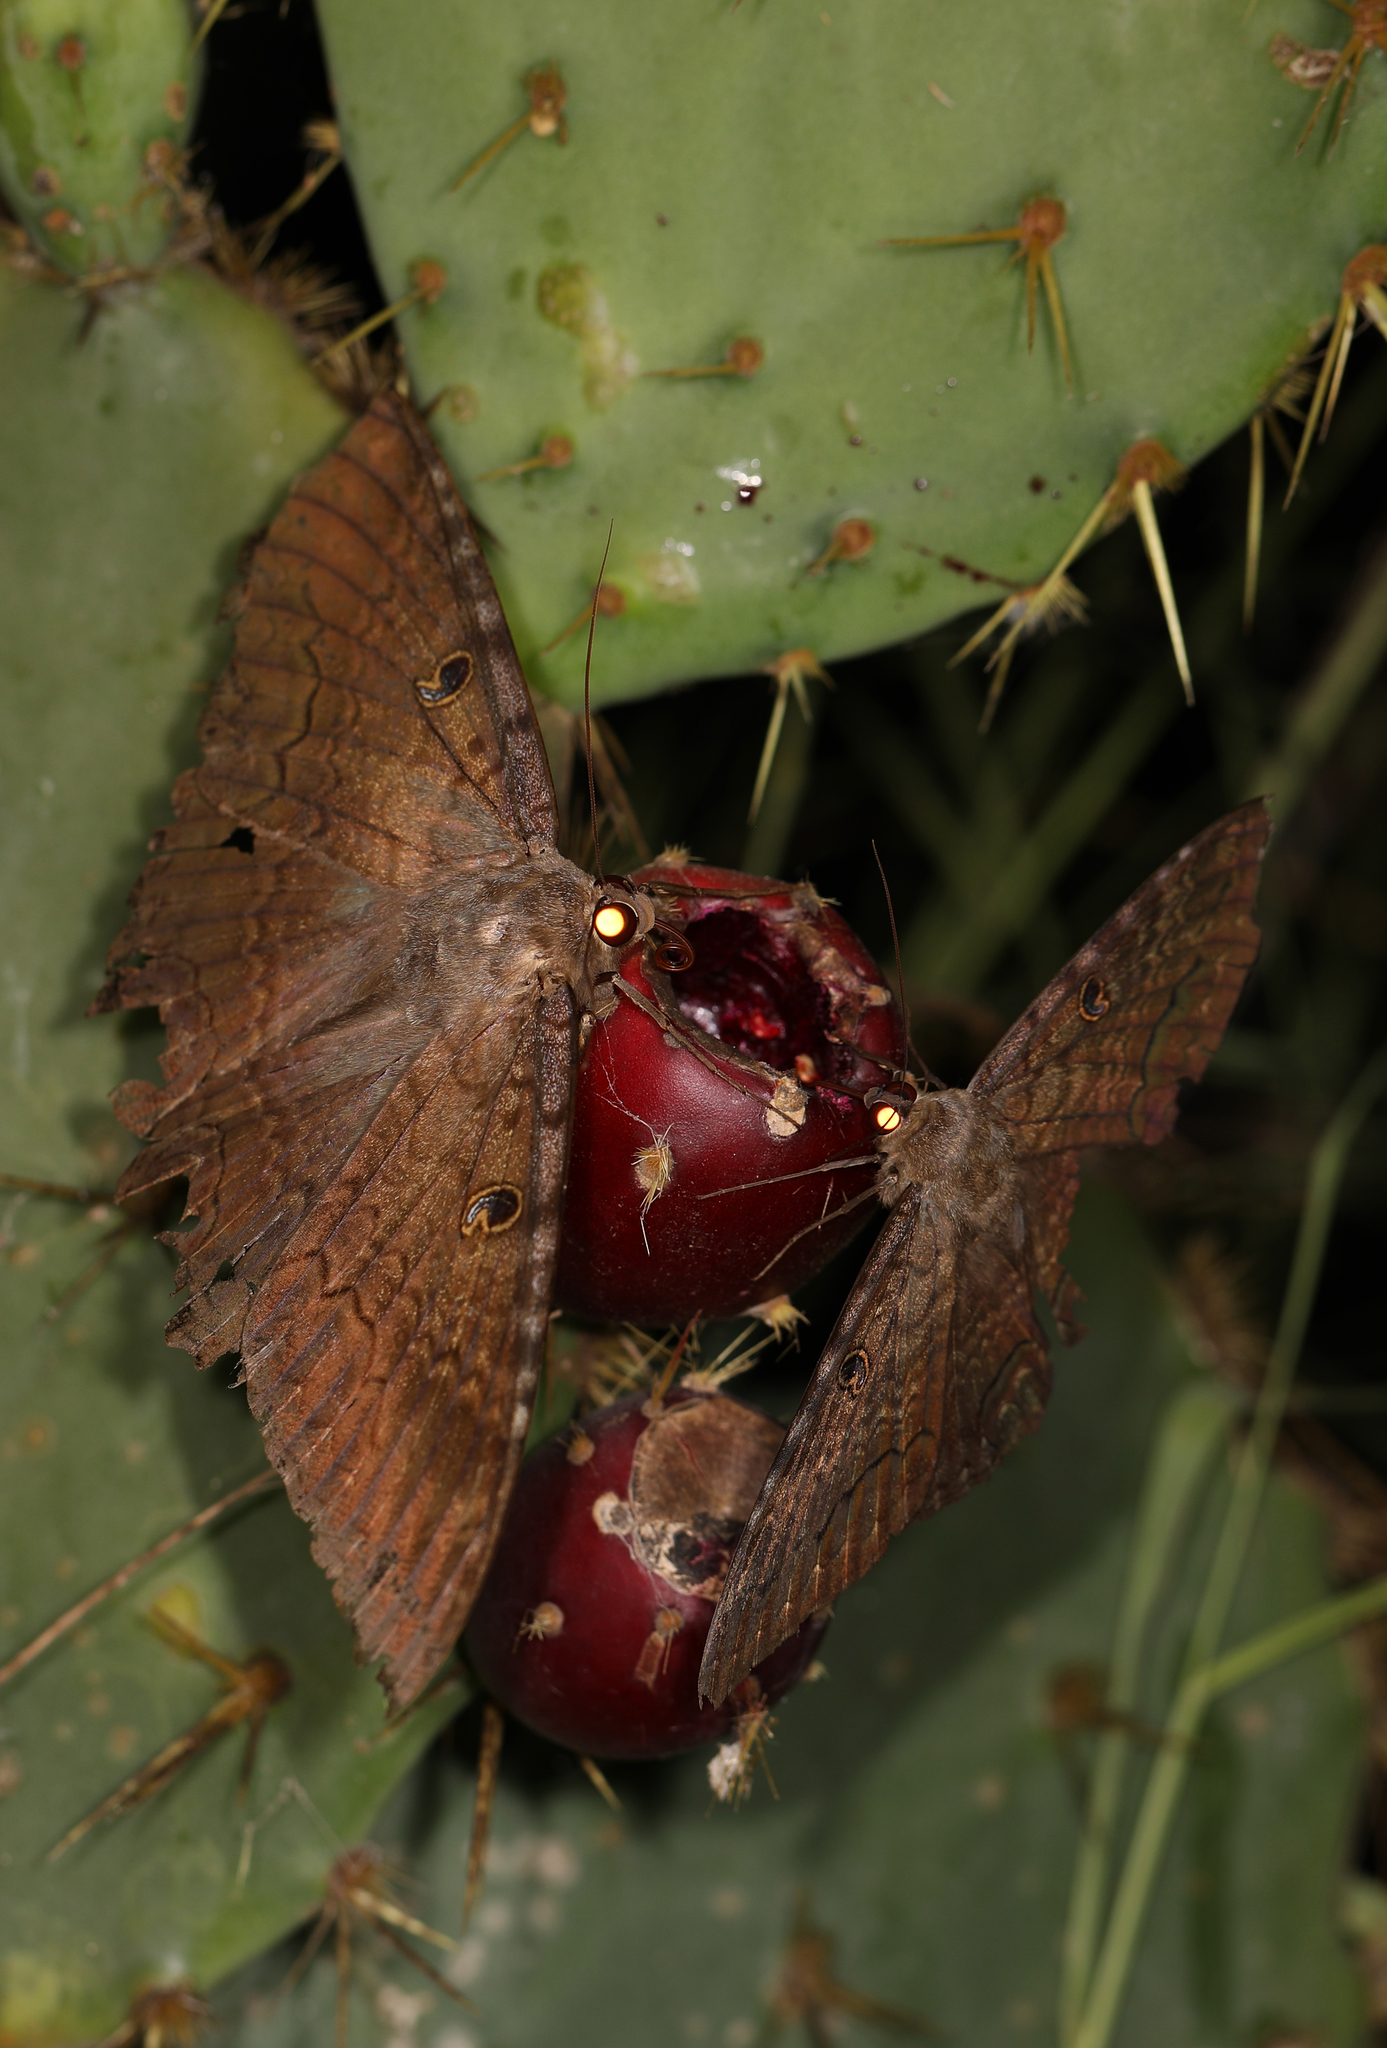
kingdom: Animalia
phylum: Arthropoda
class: Insecta
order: Lepidoptera
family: Erebidae
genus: Ascalapha
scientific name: Ascalapha odorata
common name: Black witch
